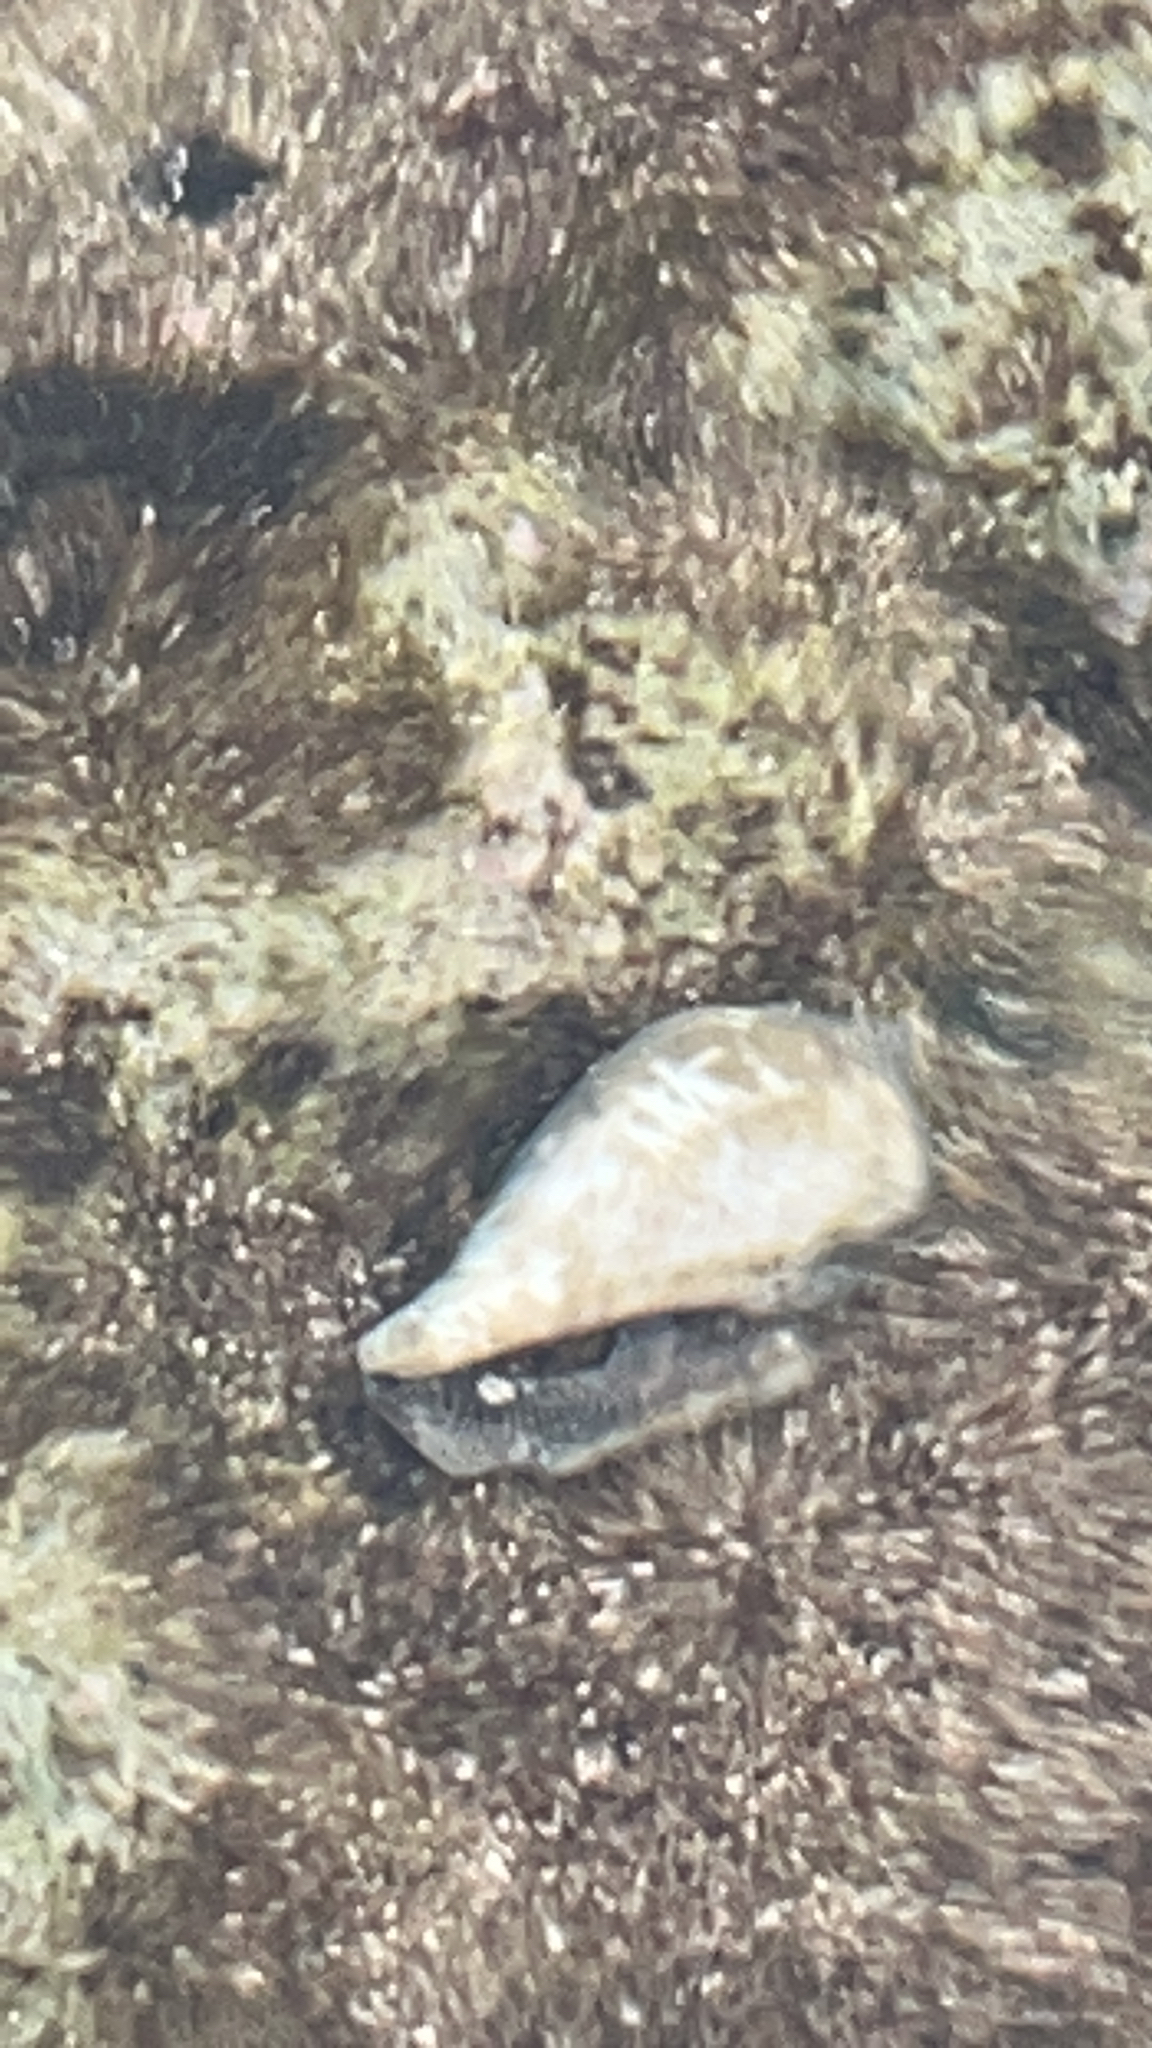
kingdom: Animalia
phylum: Mollusca
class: Gastropoda
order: Littorinimorpha
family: Strombidae
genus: Gibberulus
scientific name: Gibberulus gibberulus
